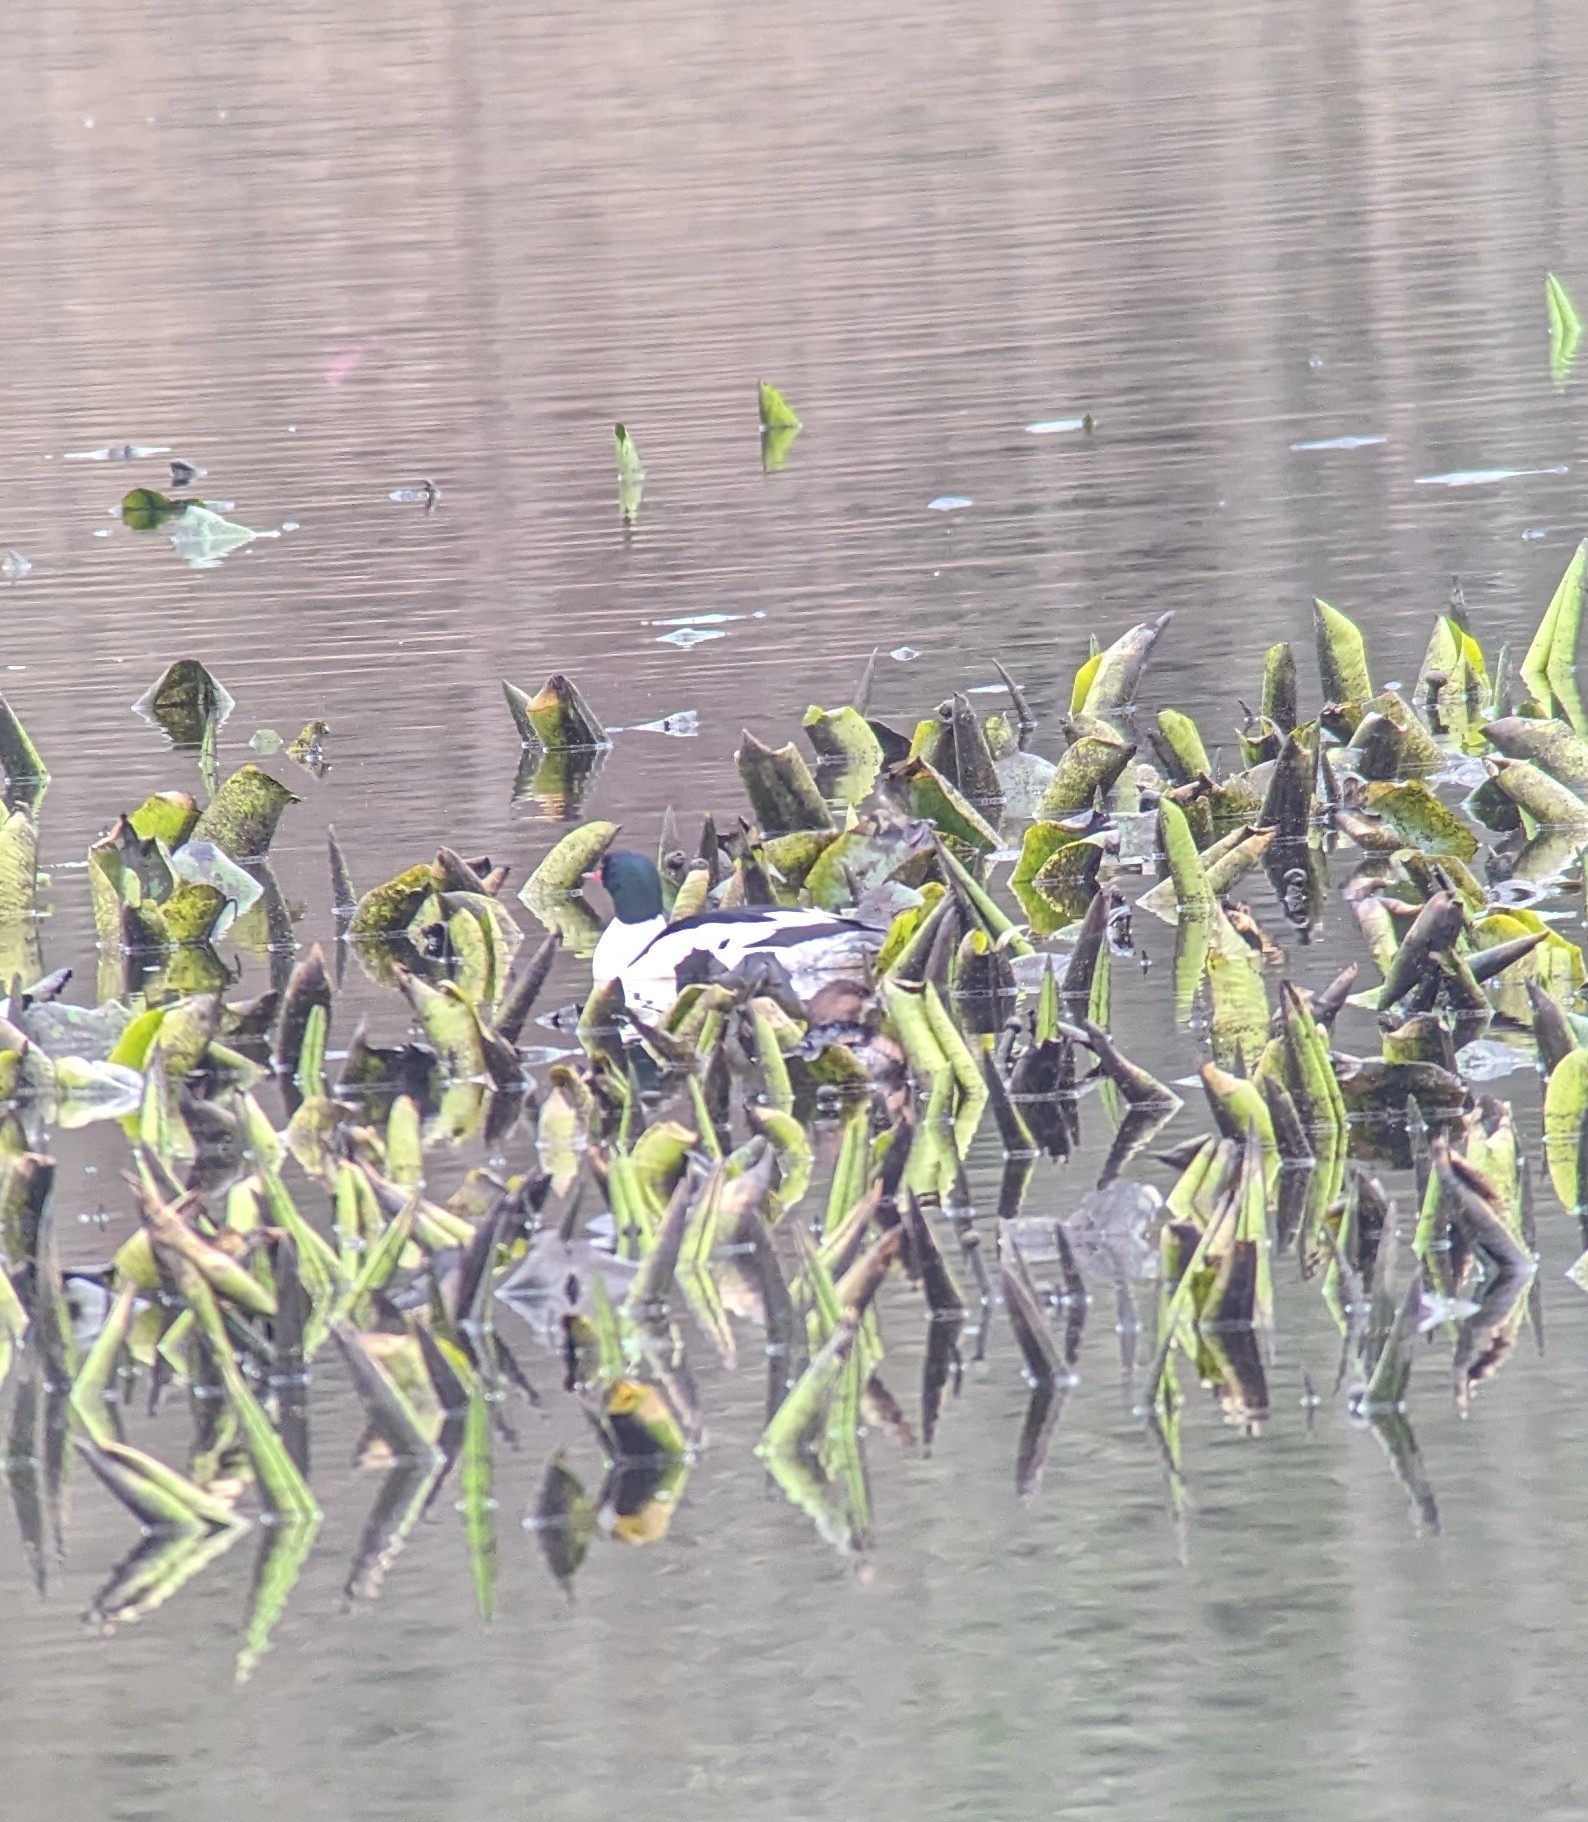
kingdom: Animalia
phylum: Chordata
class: Aves
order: Anseriformes
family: Anatidae
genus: Mergus
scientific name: Mergus merganser
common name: Common merganser
